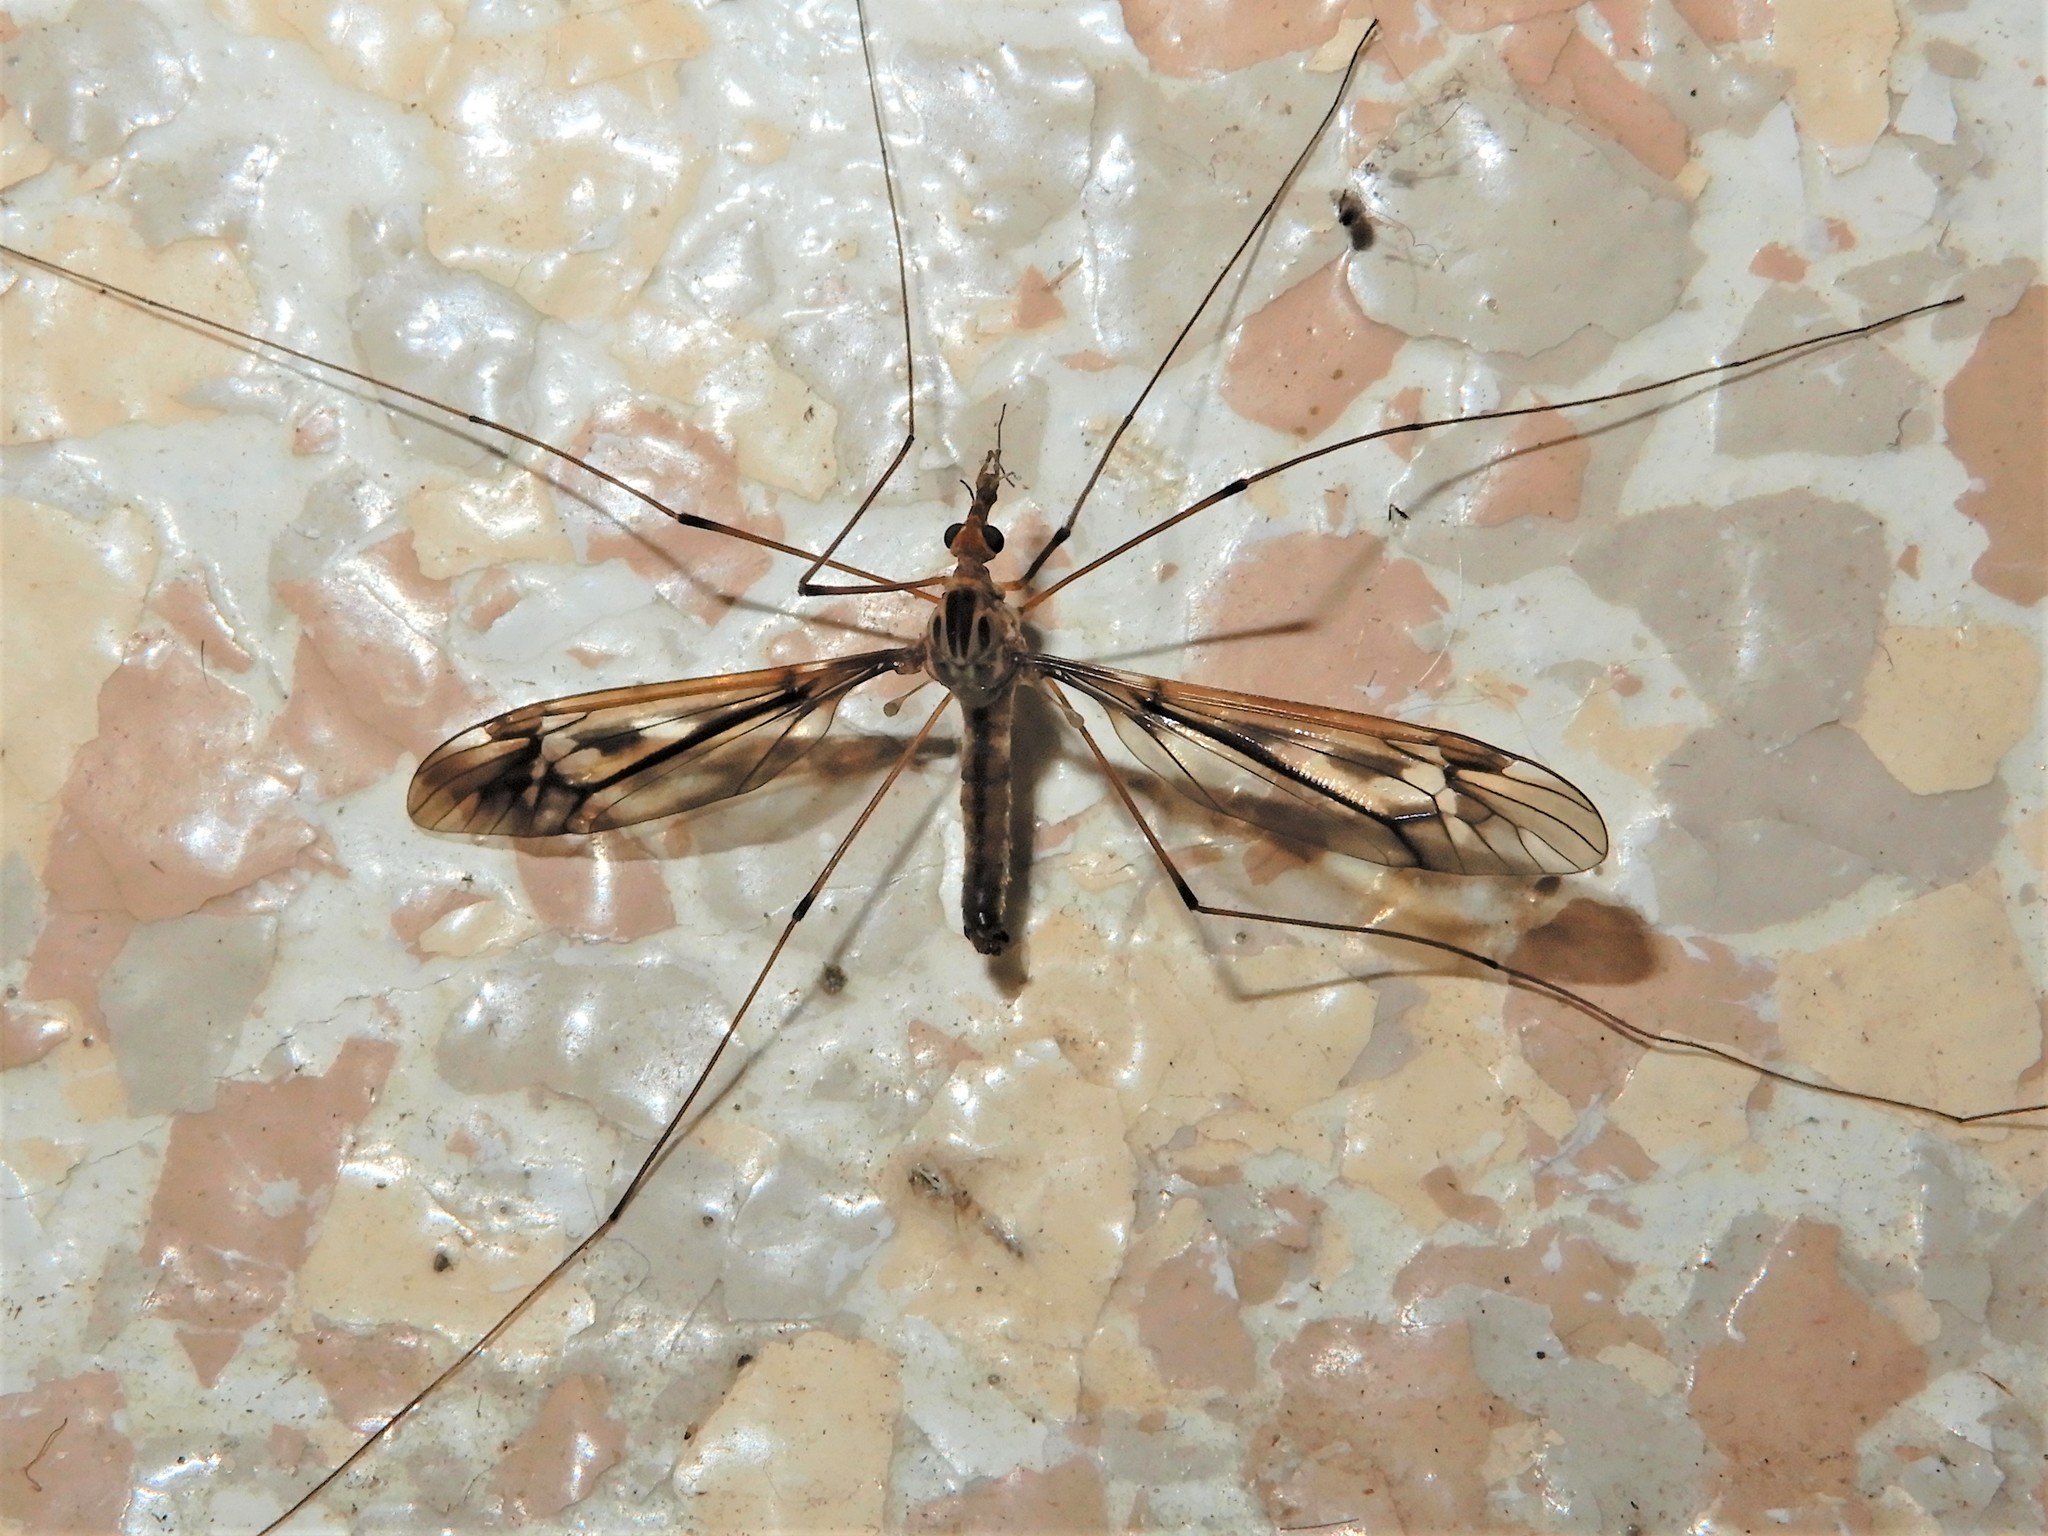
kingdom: Animalia
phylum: Arthropoda
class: Insecta
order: Diptera
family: Tipulidae
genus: Leptotarsus
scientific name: Leptotarsus huttoni
